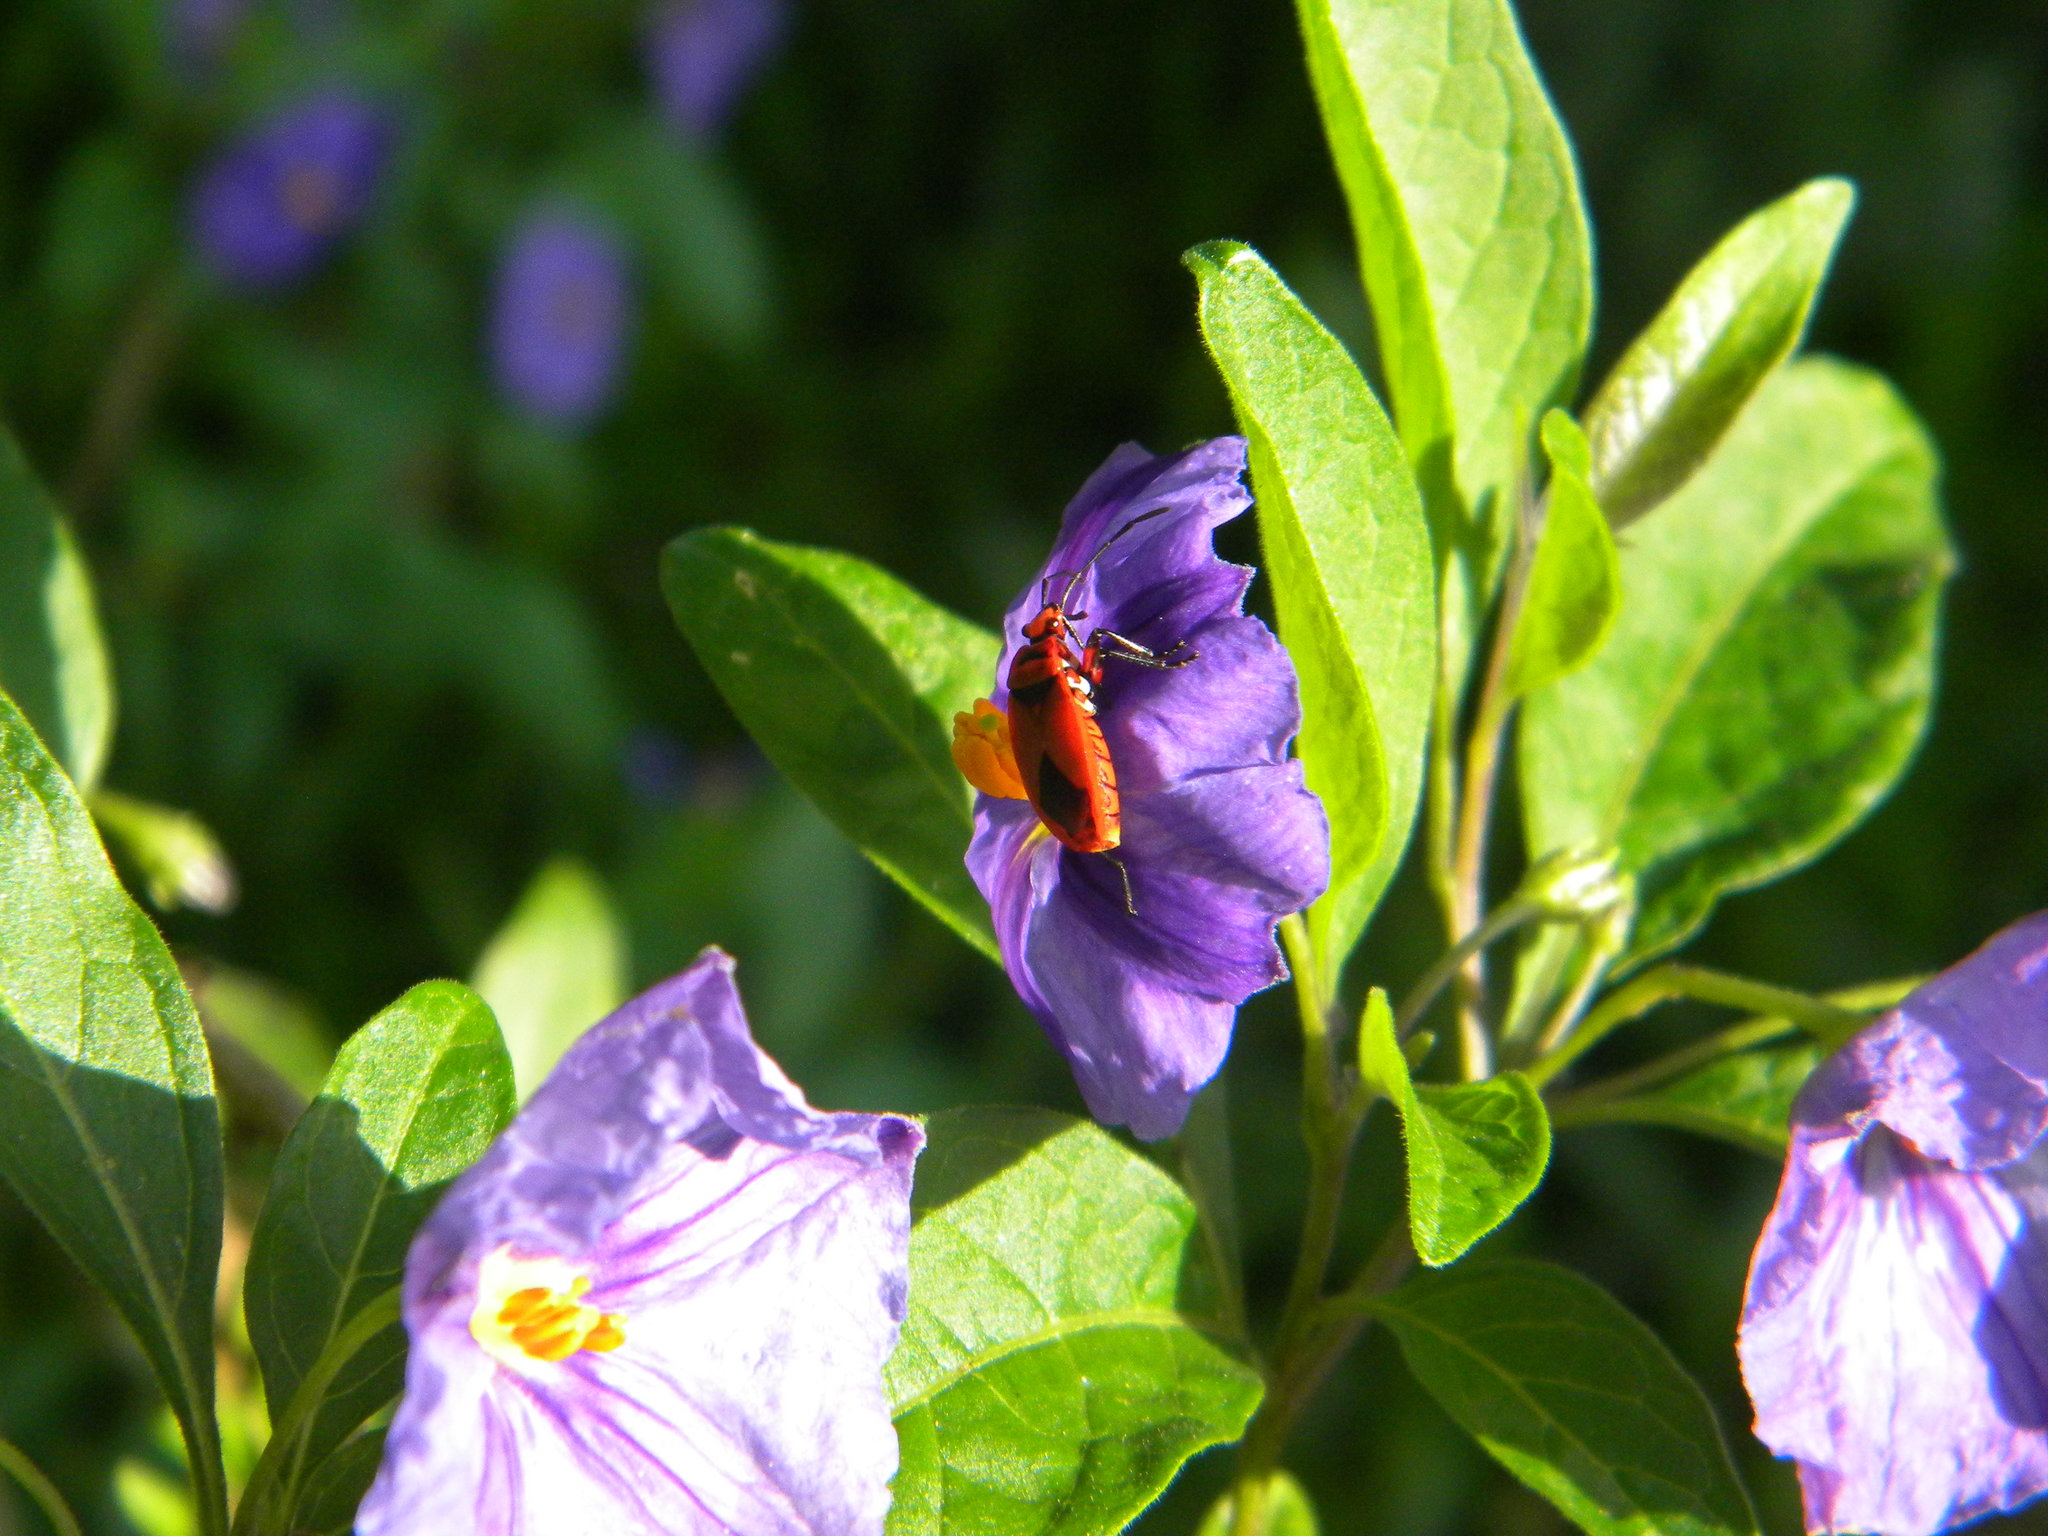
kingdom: Animalia
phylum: Arthropoda
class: Insecta
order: Hemiptera
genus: Cenaeus
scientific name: Cenaeus
